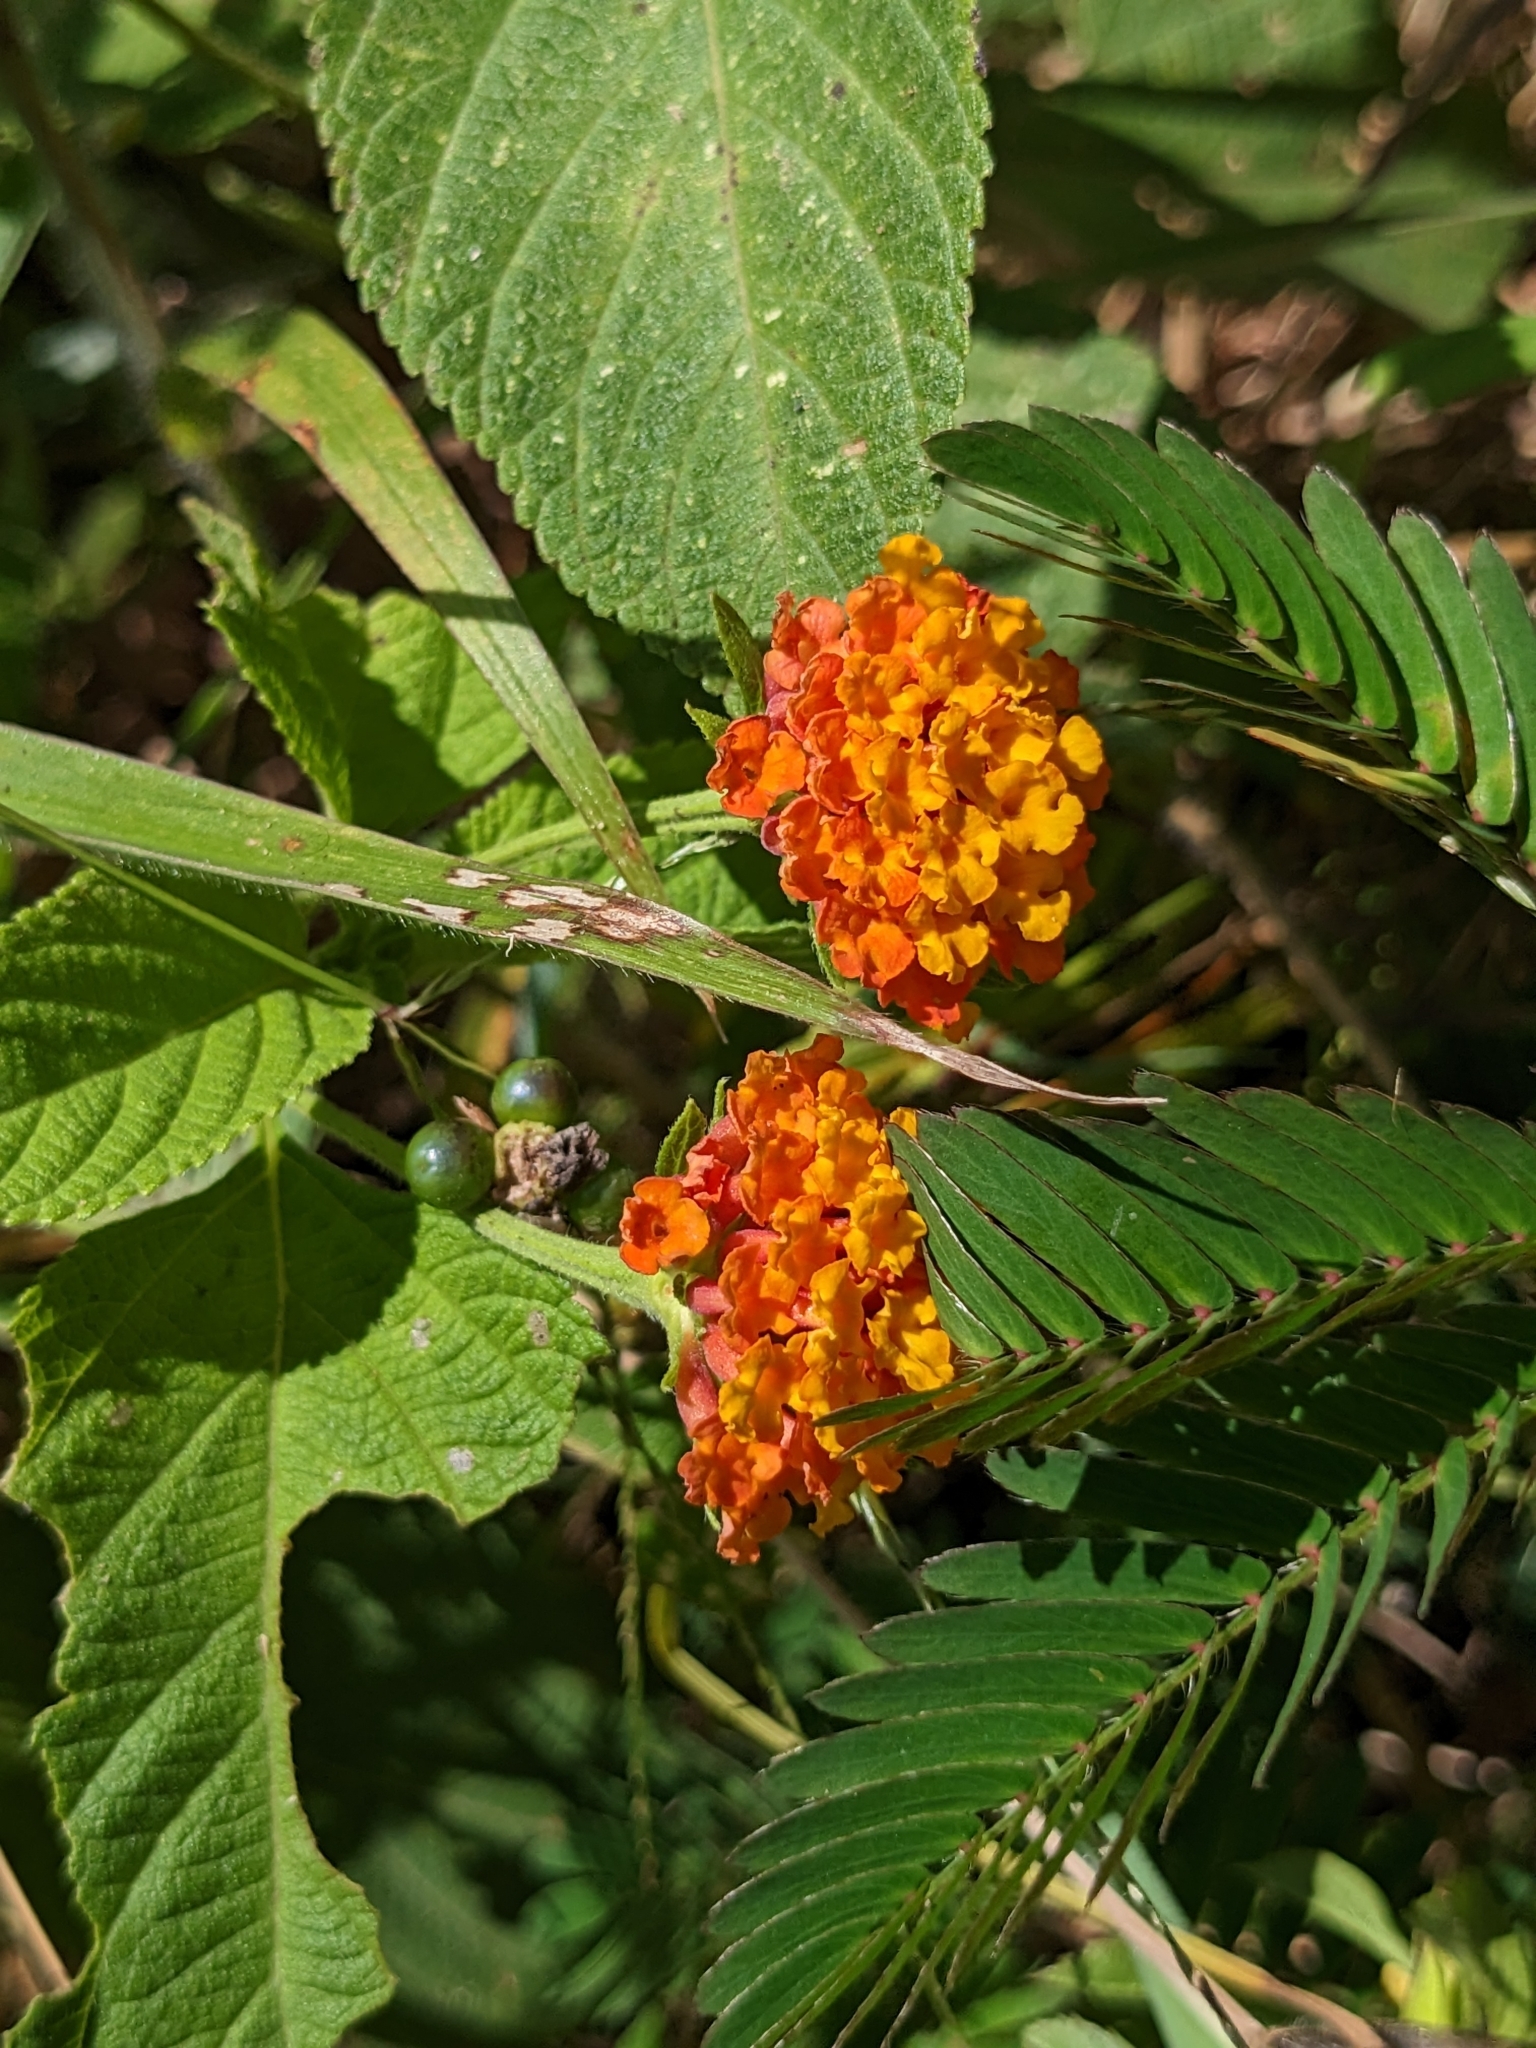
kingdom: Plantae
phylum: Tracheophyta
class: Magnoliopsida
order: Lamiales
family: Verbenaceae
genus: Lantana
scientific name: Lantana camara
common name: Lantana
